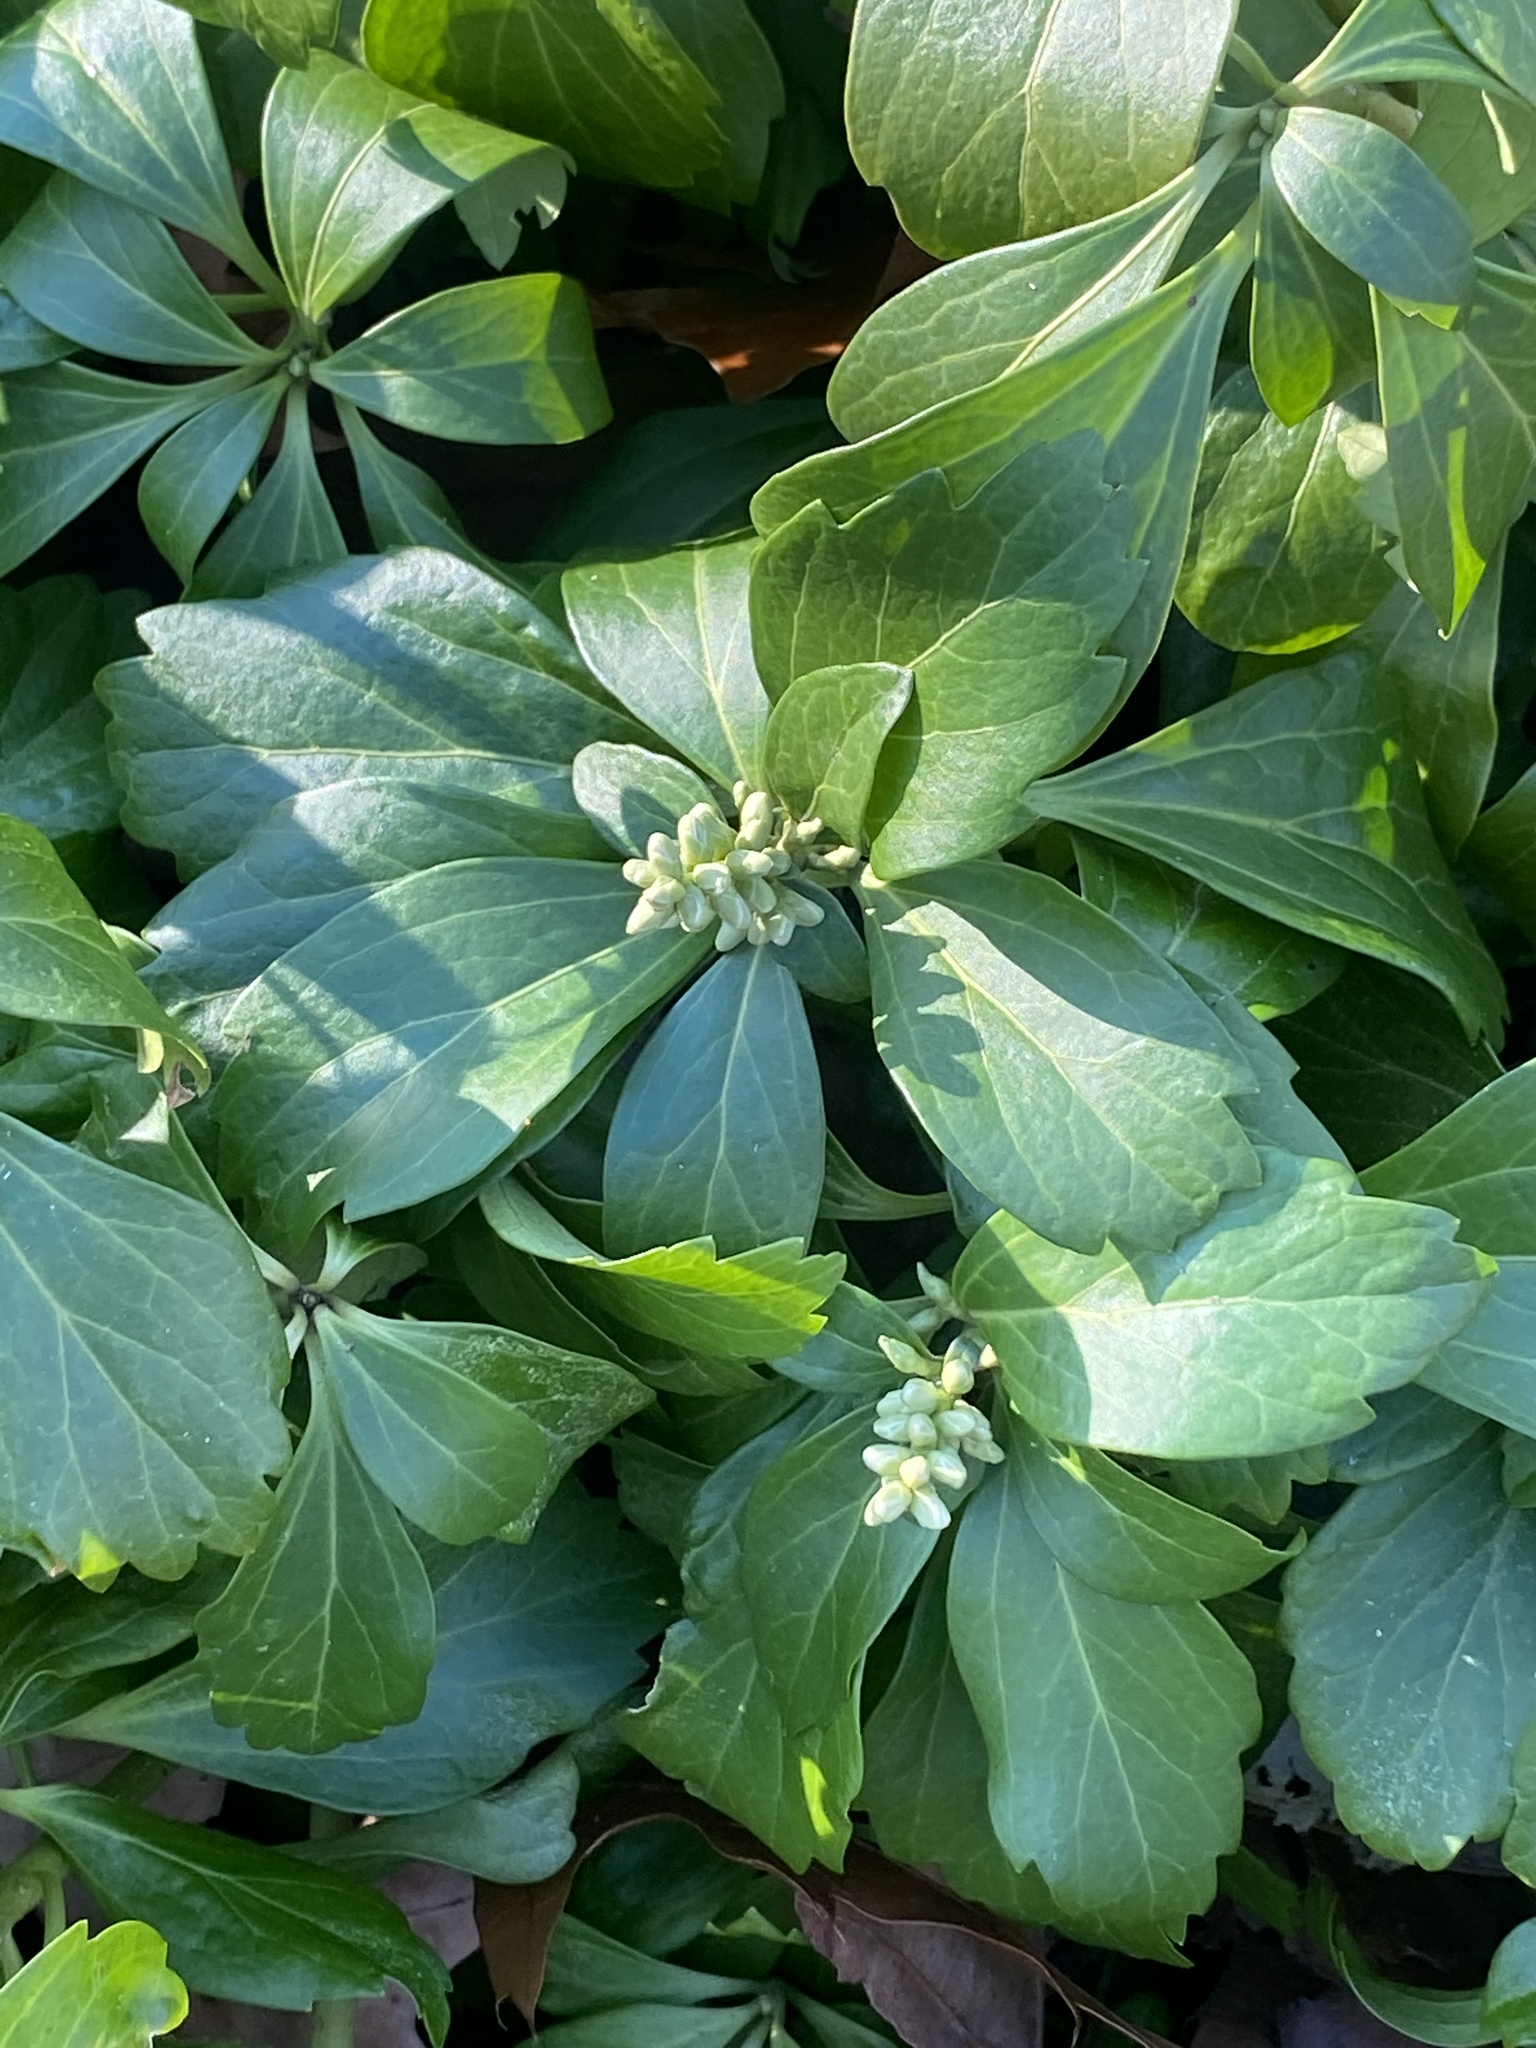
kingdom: Plantae
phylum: Tracheophyta
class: Magnoliopsida
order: Buxales
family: Buxaceae
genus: Pachysandra
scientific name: Pachysandra terminalis
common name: Japanese pachysandra
